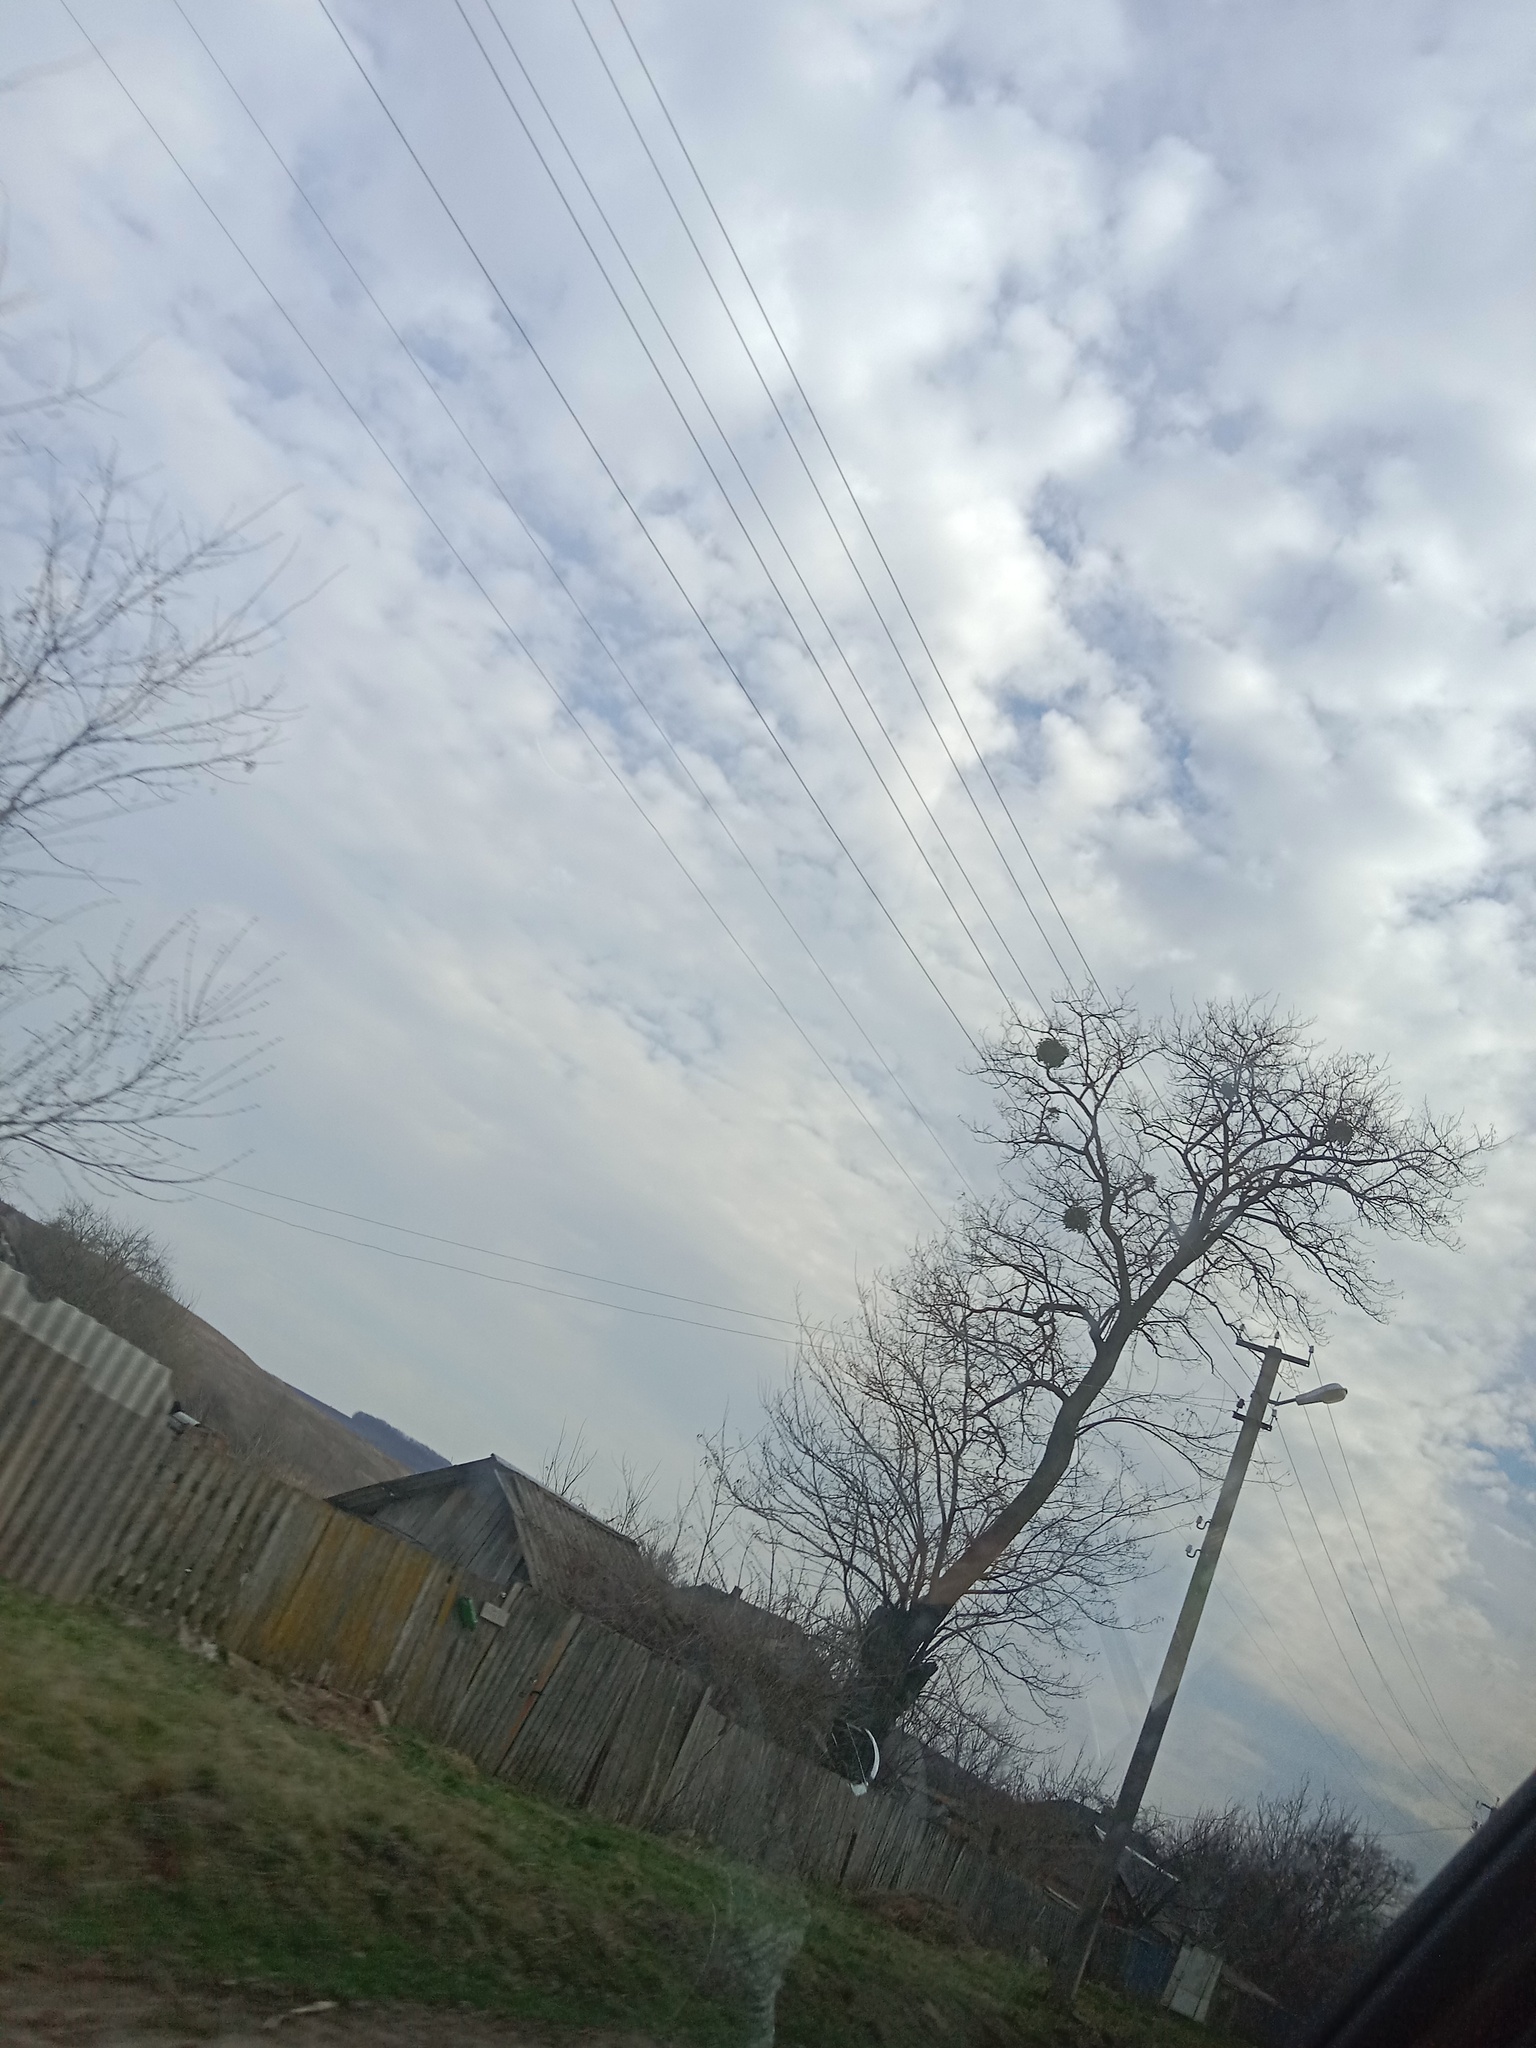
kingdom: Plantae
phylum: Tracheophyta
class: Magnoliopsida
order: Santalales
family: Viscaceae
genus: Viscum
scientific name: Viscum album
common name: Mistletoe
